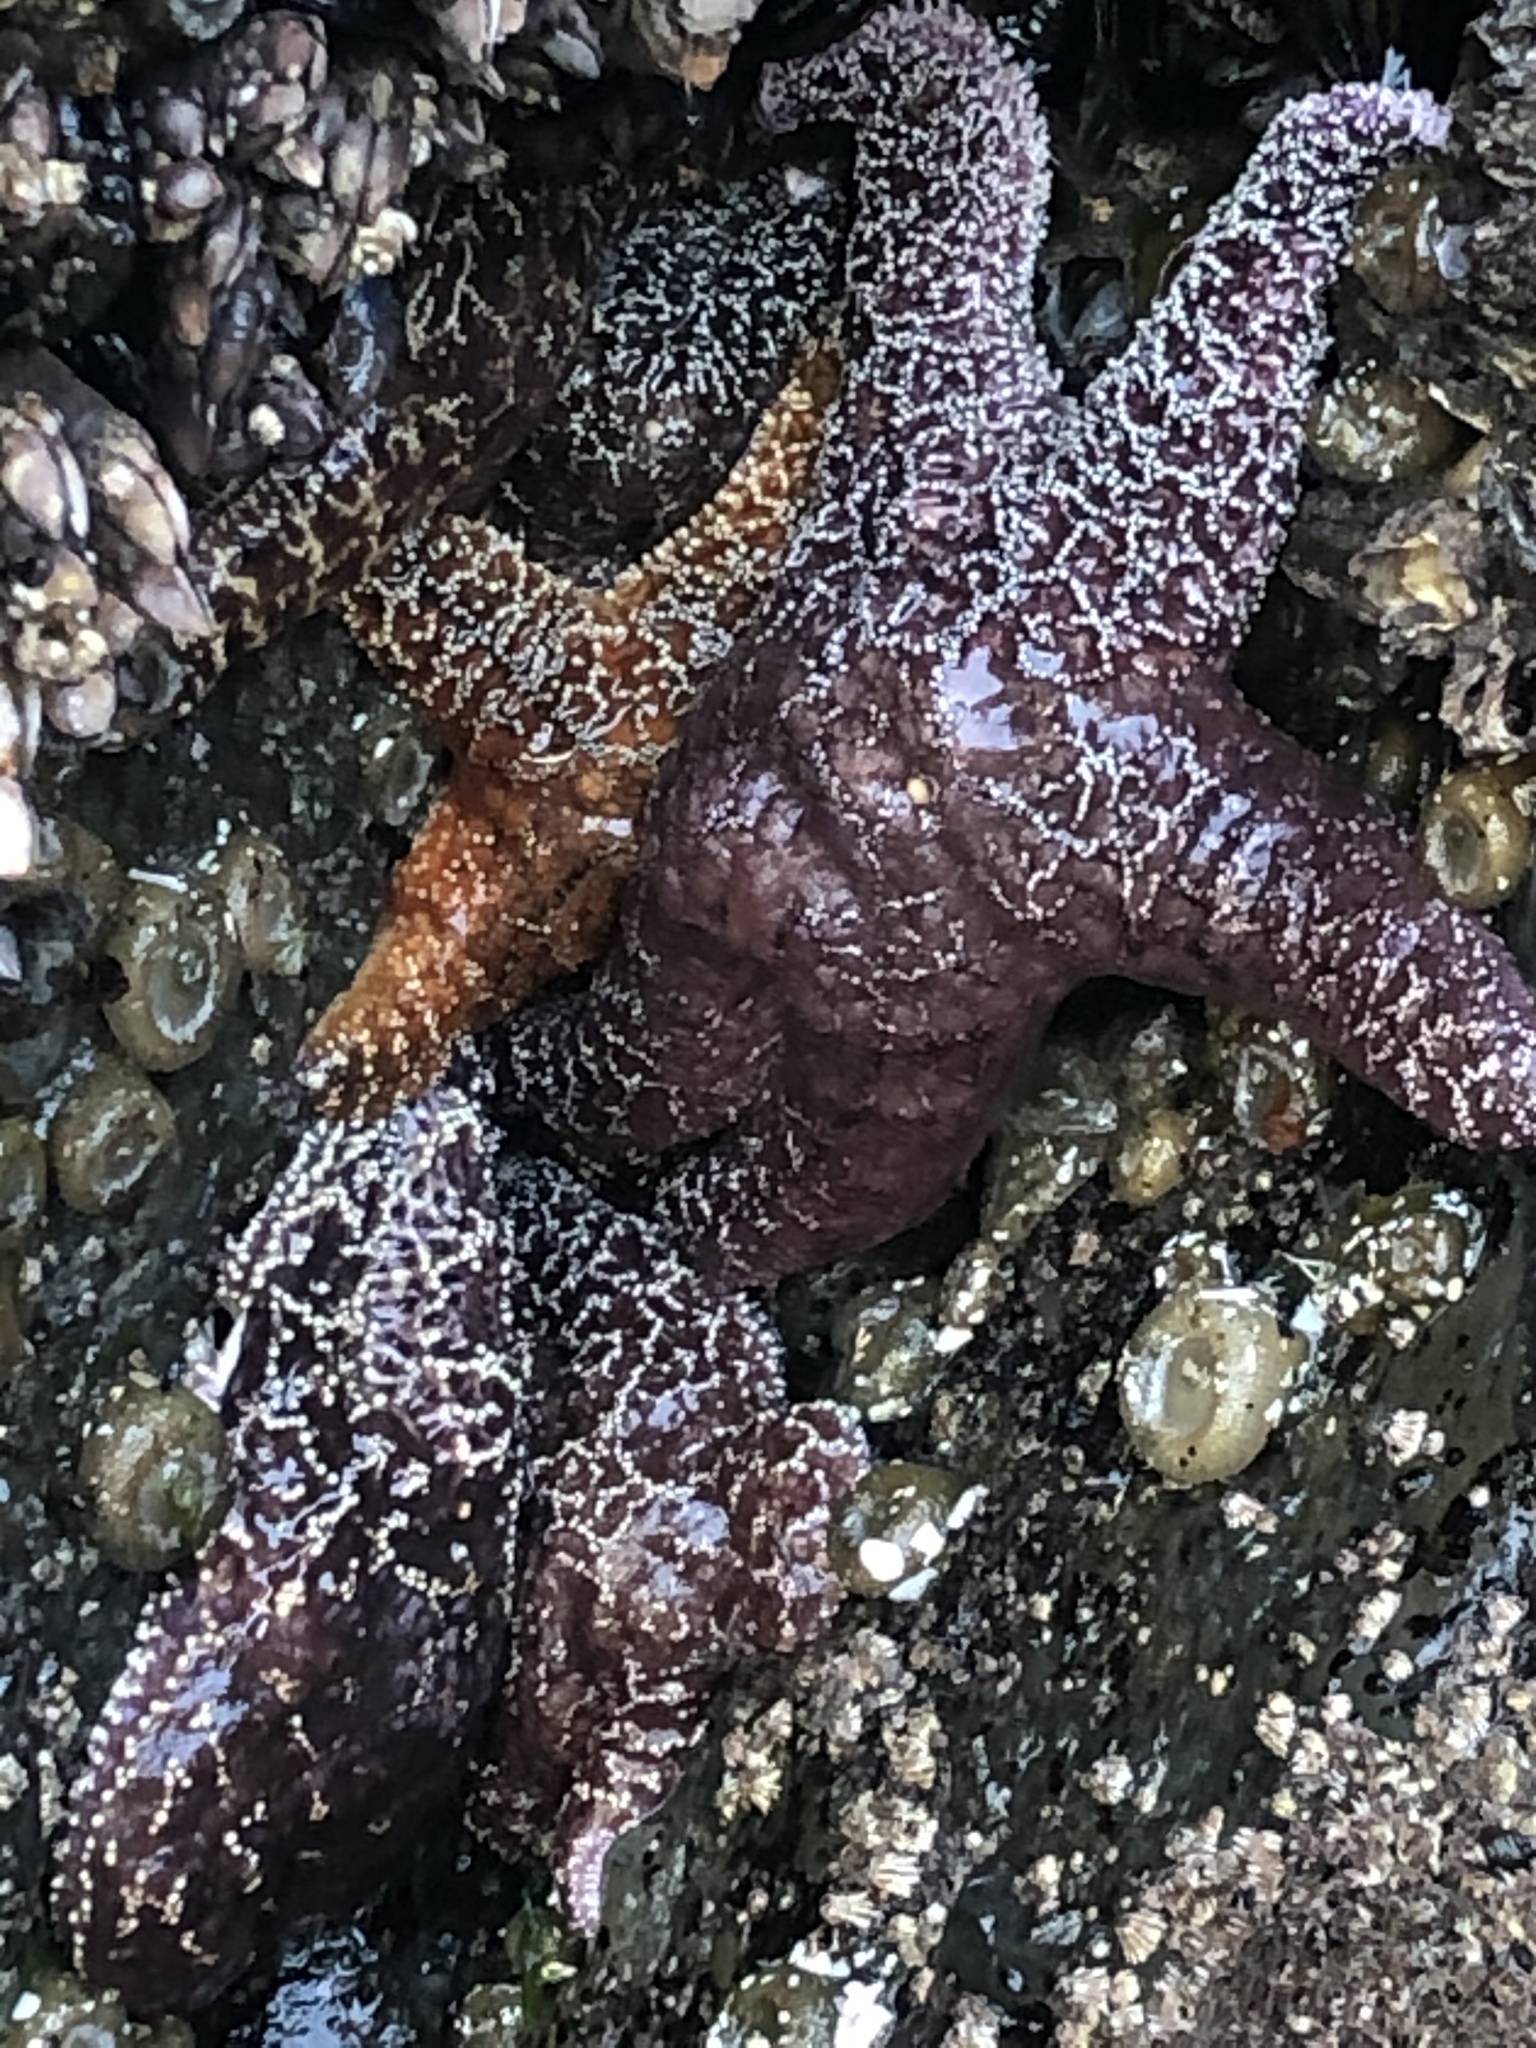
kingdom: Animalia
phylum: Echinodermata
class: Asteroidea
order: Forcipulatida
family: Asteriidae
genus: Pisaster
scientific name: Pisaster ochraceus
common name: Ochre stars
